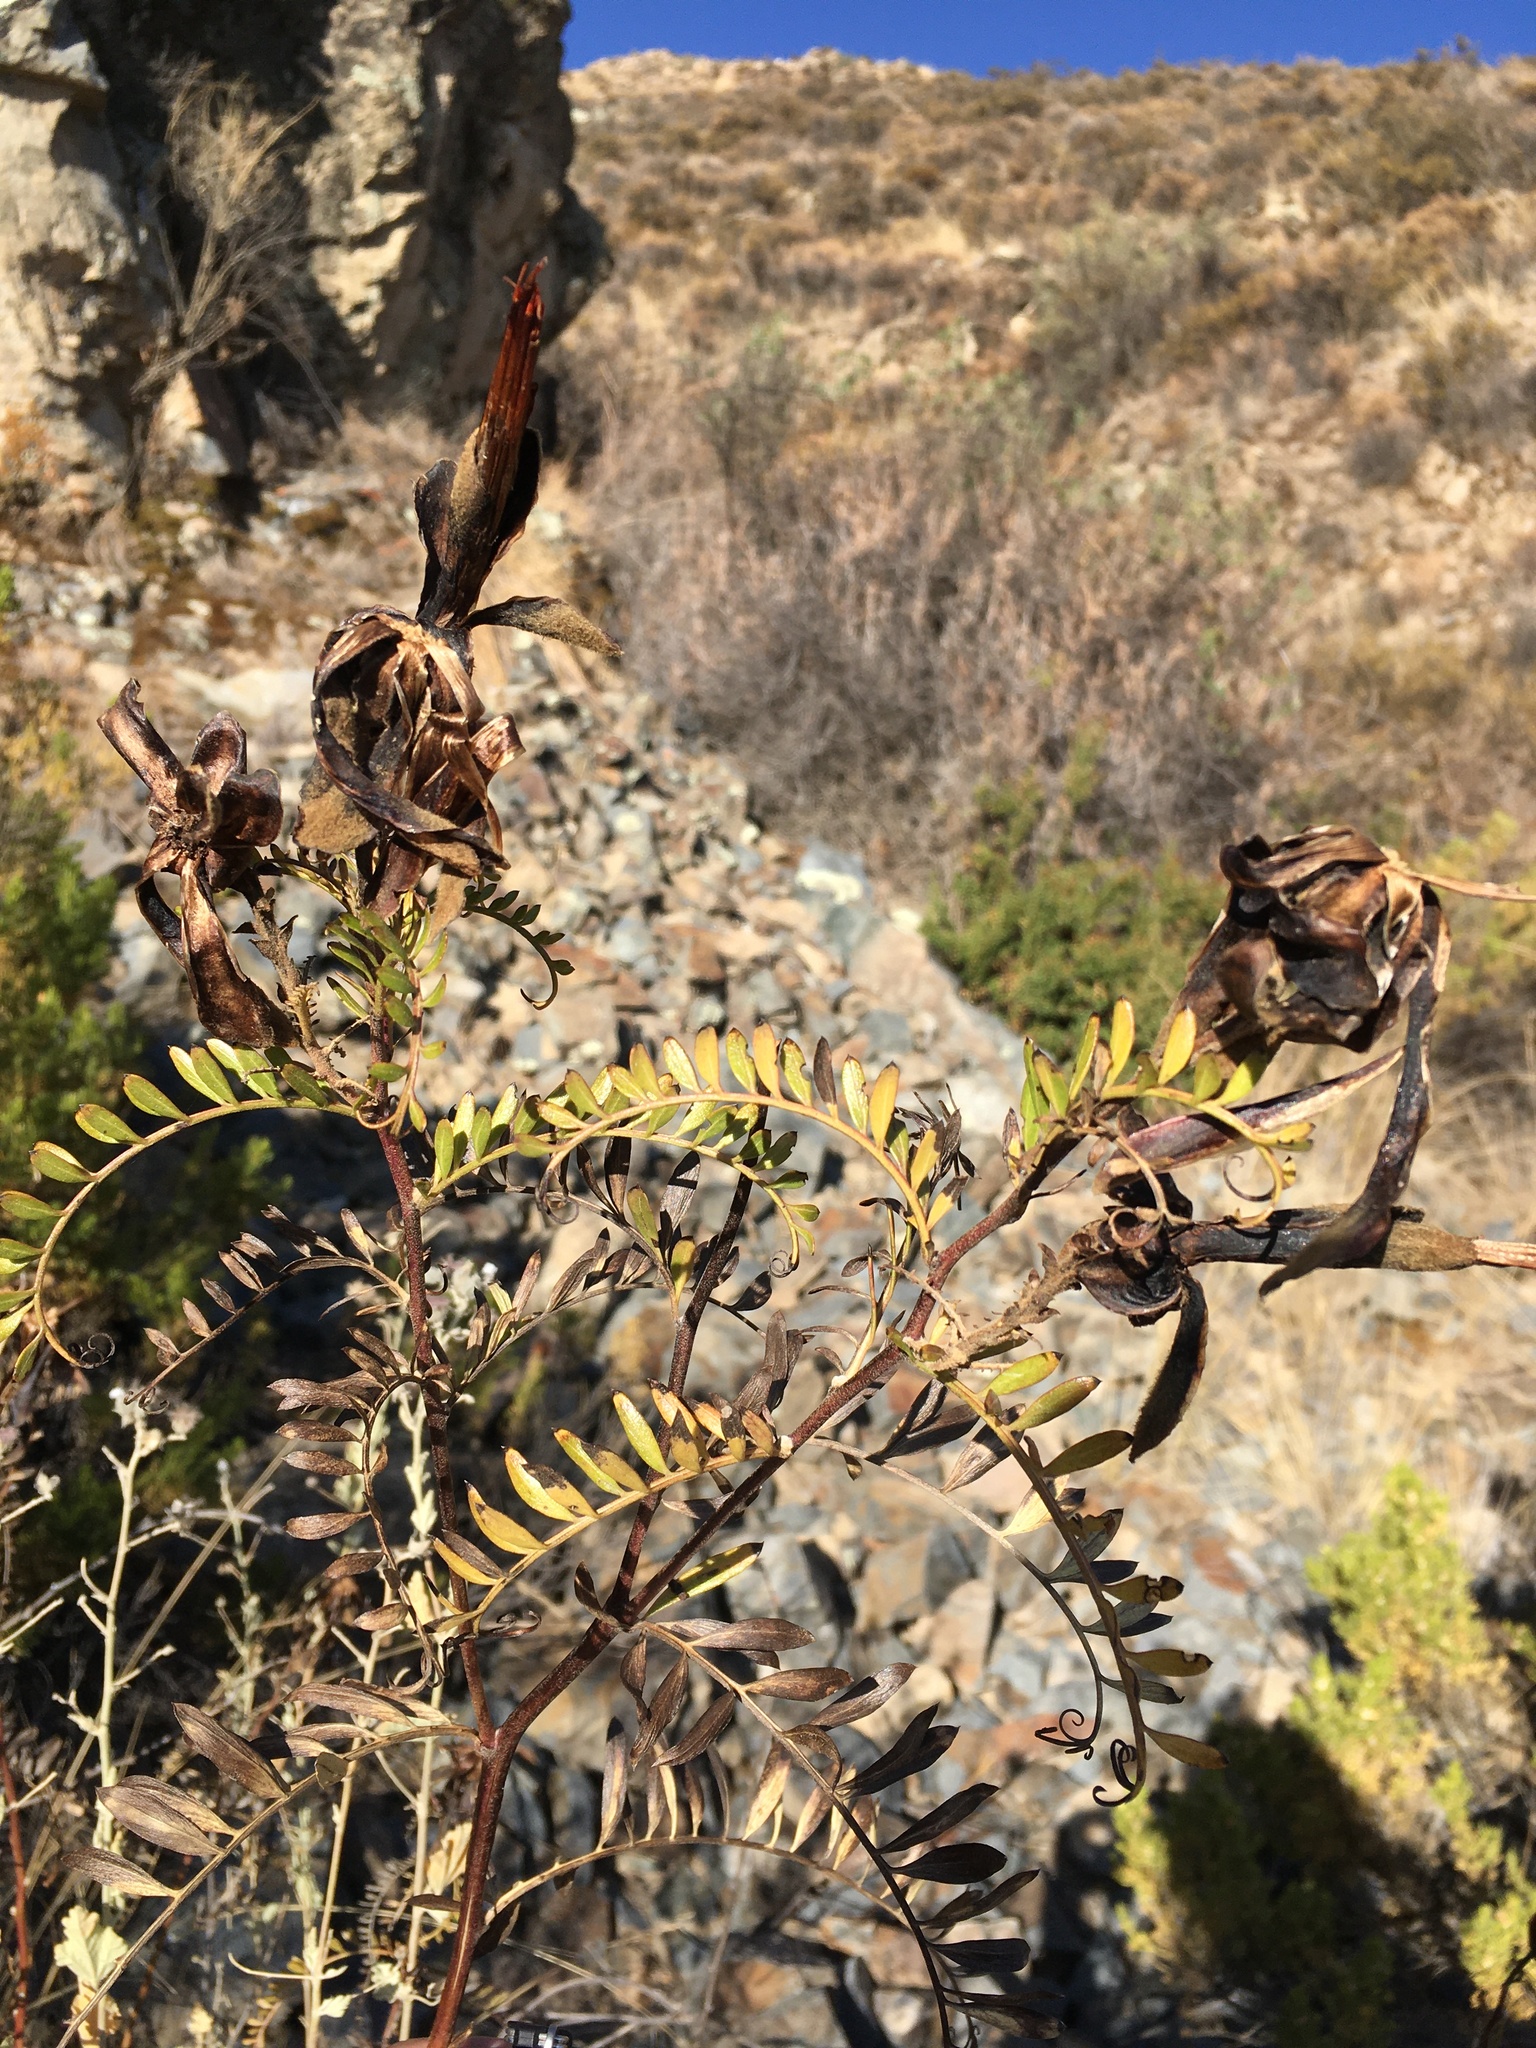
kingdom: Plantae
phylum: Tracheophyta
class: Magnoliopsida
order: Asterales
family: Asteraceae
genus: Mutisia
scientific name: Mutisia acuminata
